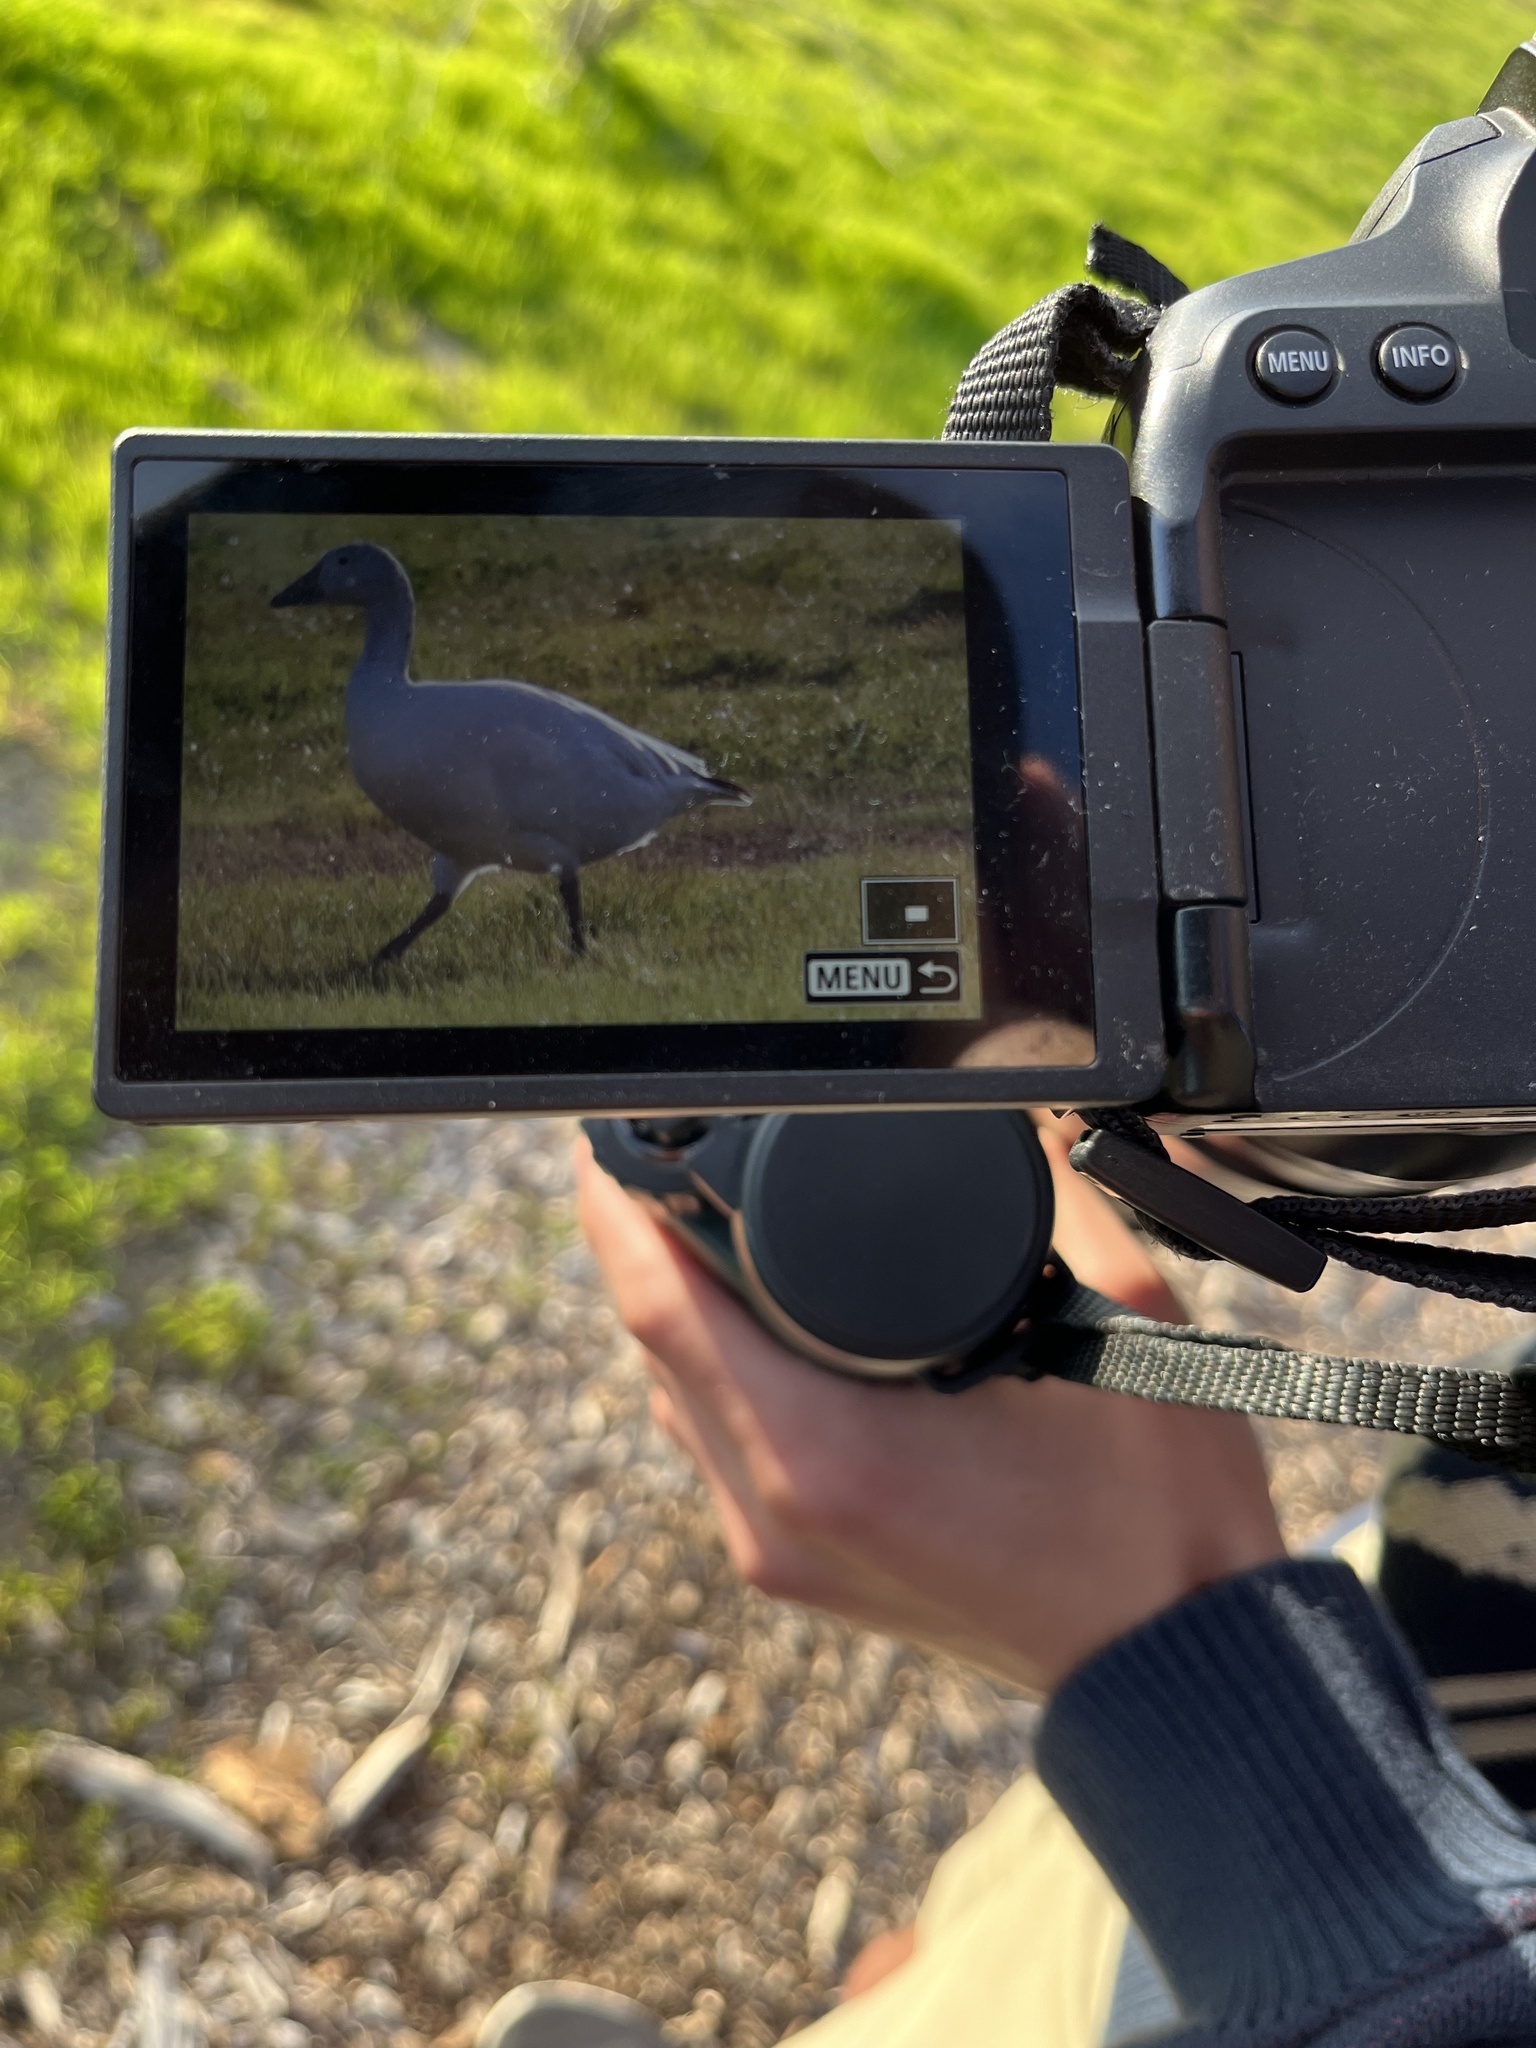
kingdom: Animalia
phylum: Chordata
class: Aves
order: Anseriformes
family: Anatidae
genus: Anser
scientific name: Anser caerulescens
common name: Snow goose
